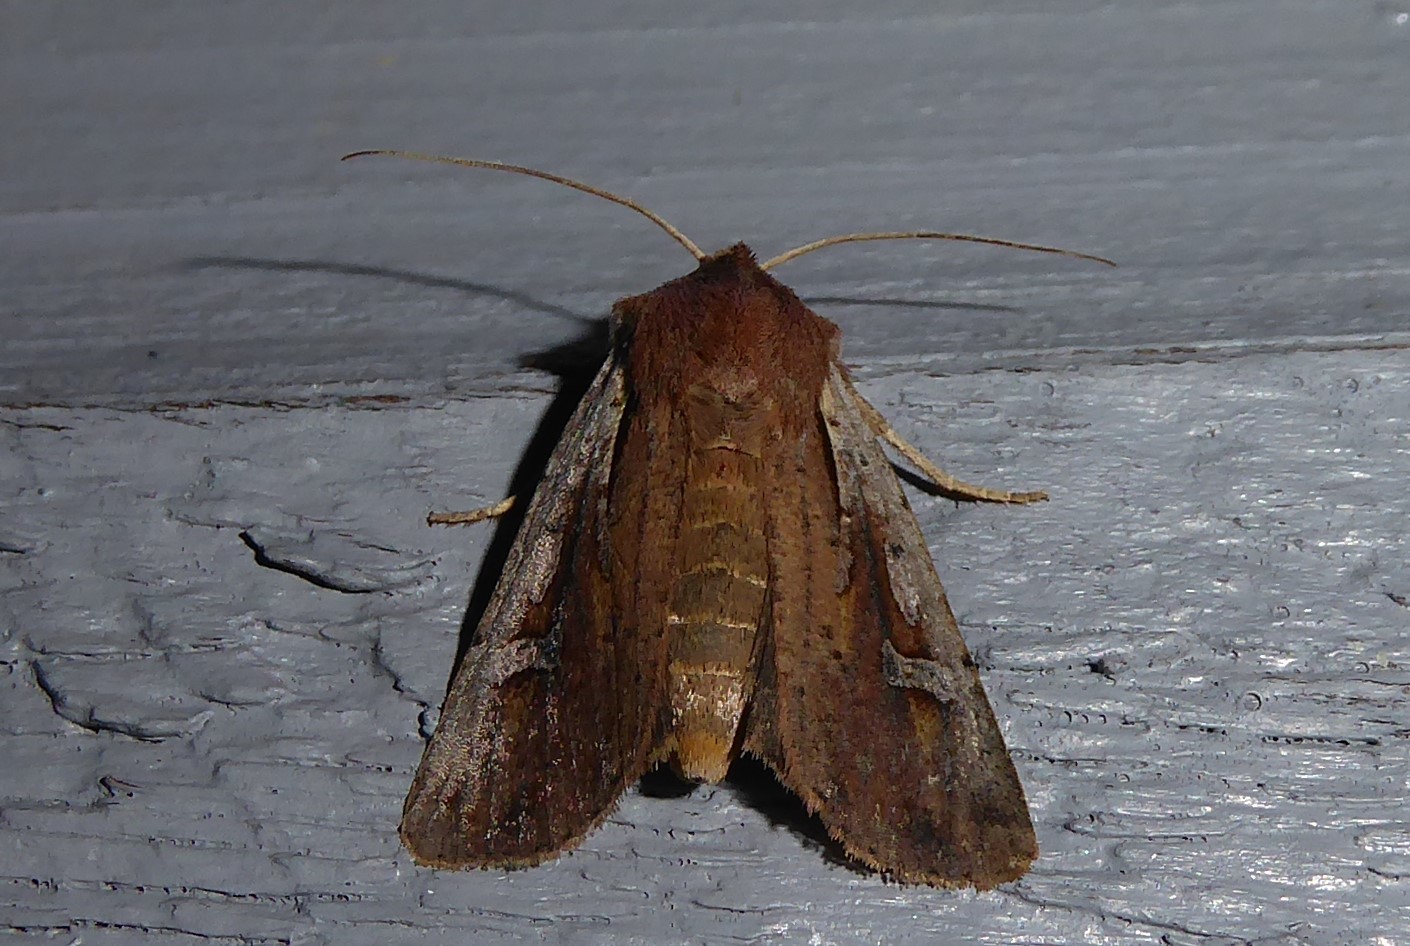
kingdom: Animalia
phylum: Arthropoda
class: Insecta
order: Lepidoptera
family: Noctuidae
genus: Ichneutica
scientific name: Ichneutica atristriga
